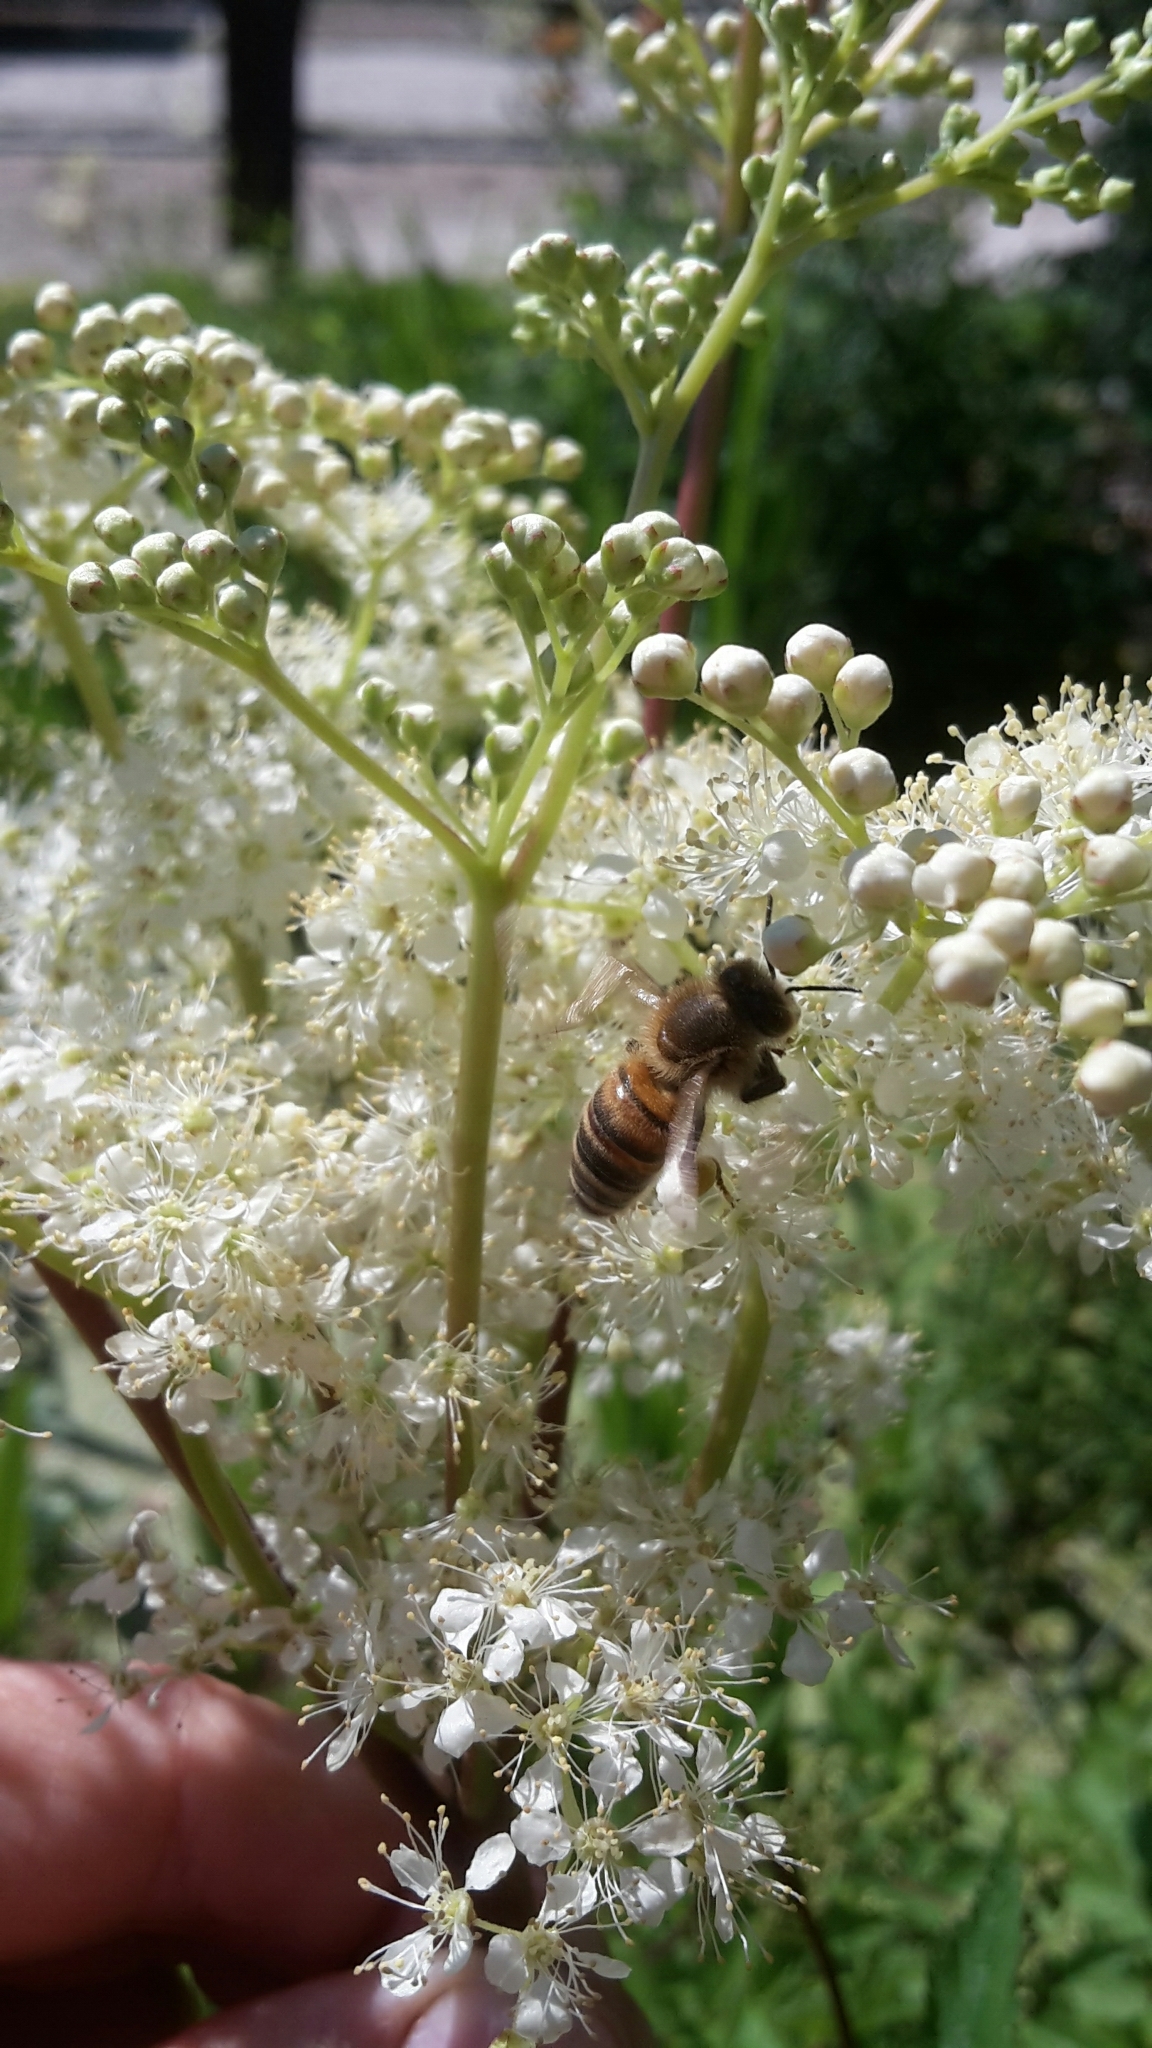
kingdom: Animalia
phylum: Arthropoda
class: Insecta
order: Hymenoptera
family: Apidae
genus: Apis
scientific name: Apis mellifera
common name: Honey bee
